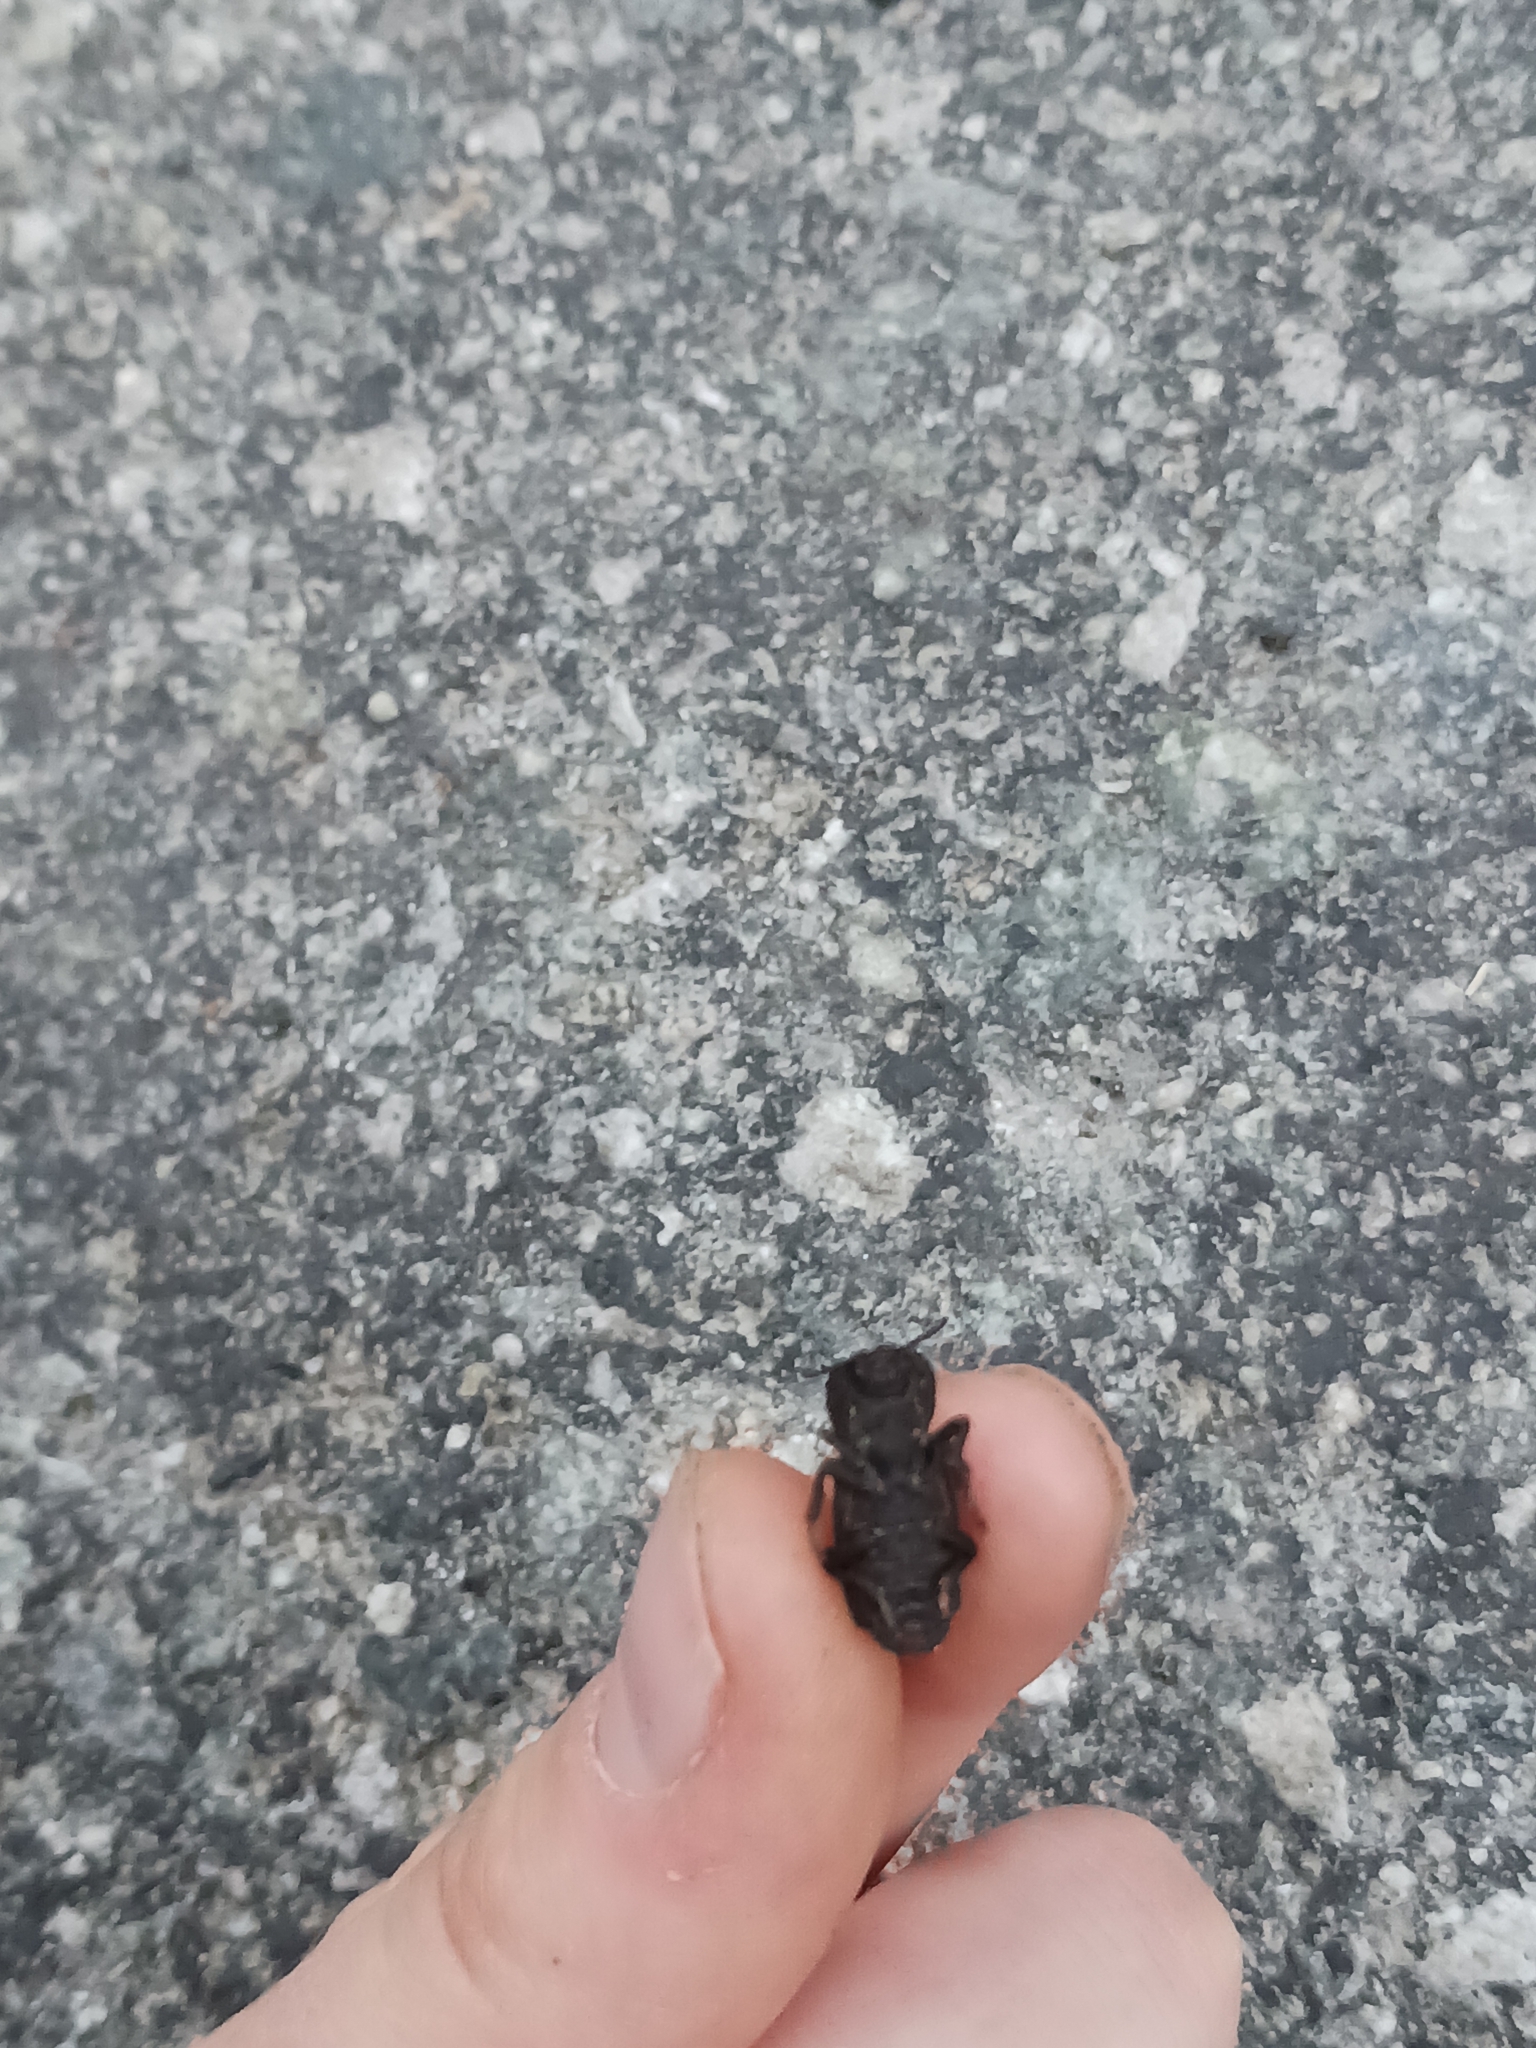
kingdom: Animalia
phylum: Arthropoda
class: Insecta
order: Coleoptera
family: Zopheridae
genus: Phloeodes
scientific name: Phloeodes plicatus
